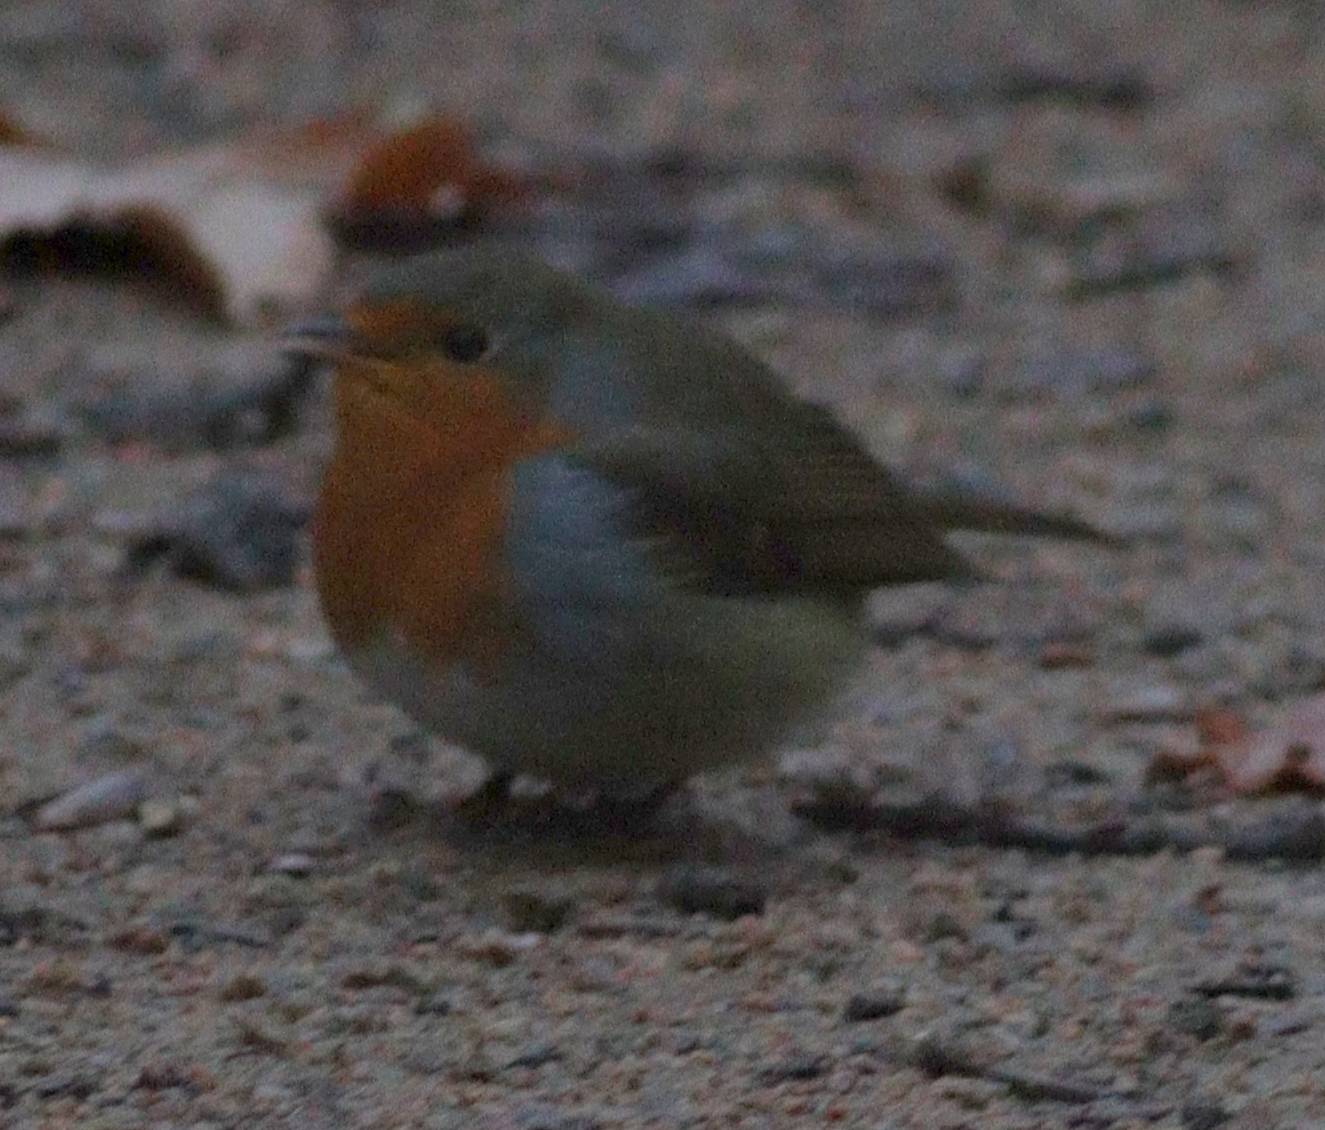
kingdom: Animalia
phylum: Chordata
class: Aves
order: Passeriformes
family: Muscicapidae
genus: Erithacus
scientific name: Erithacus rubecula
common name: European robin
